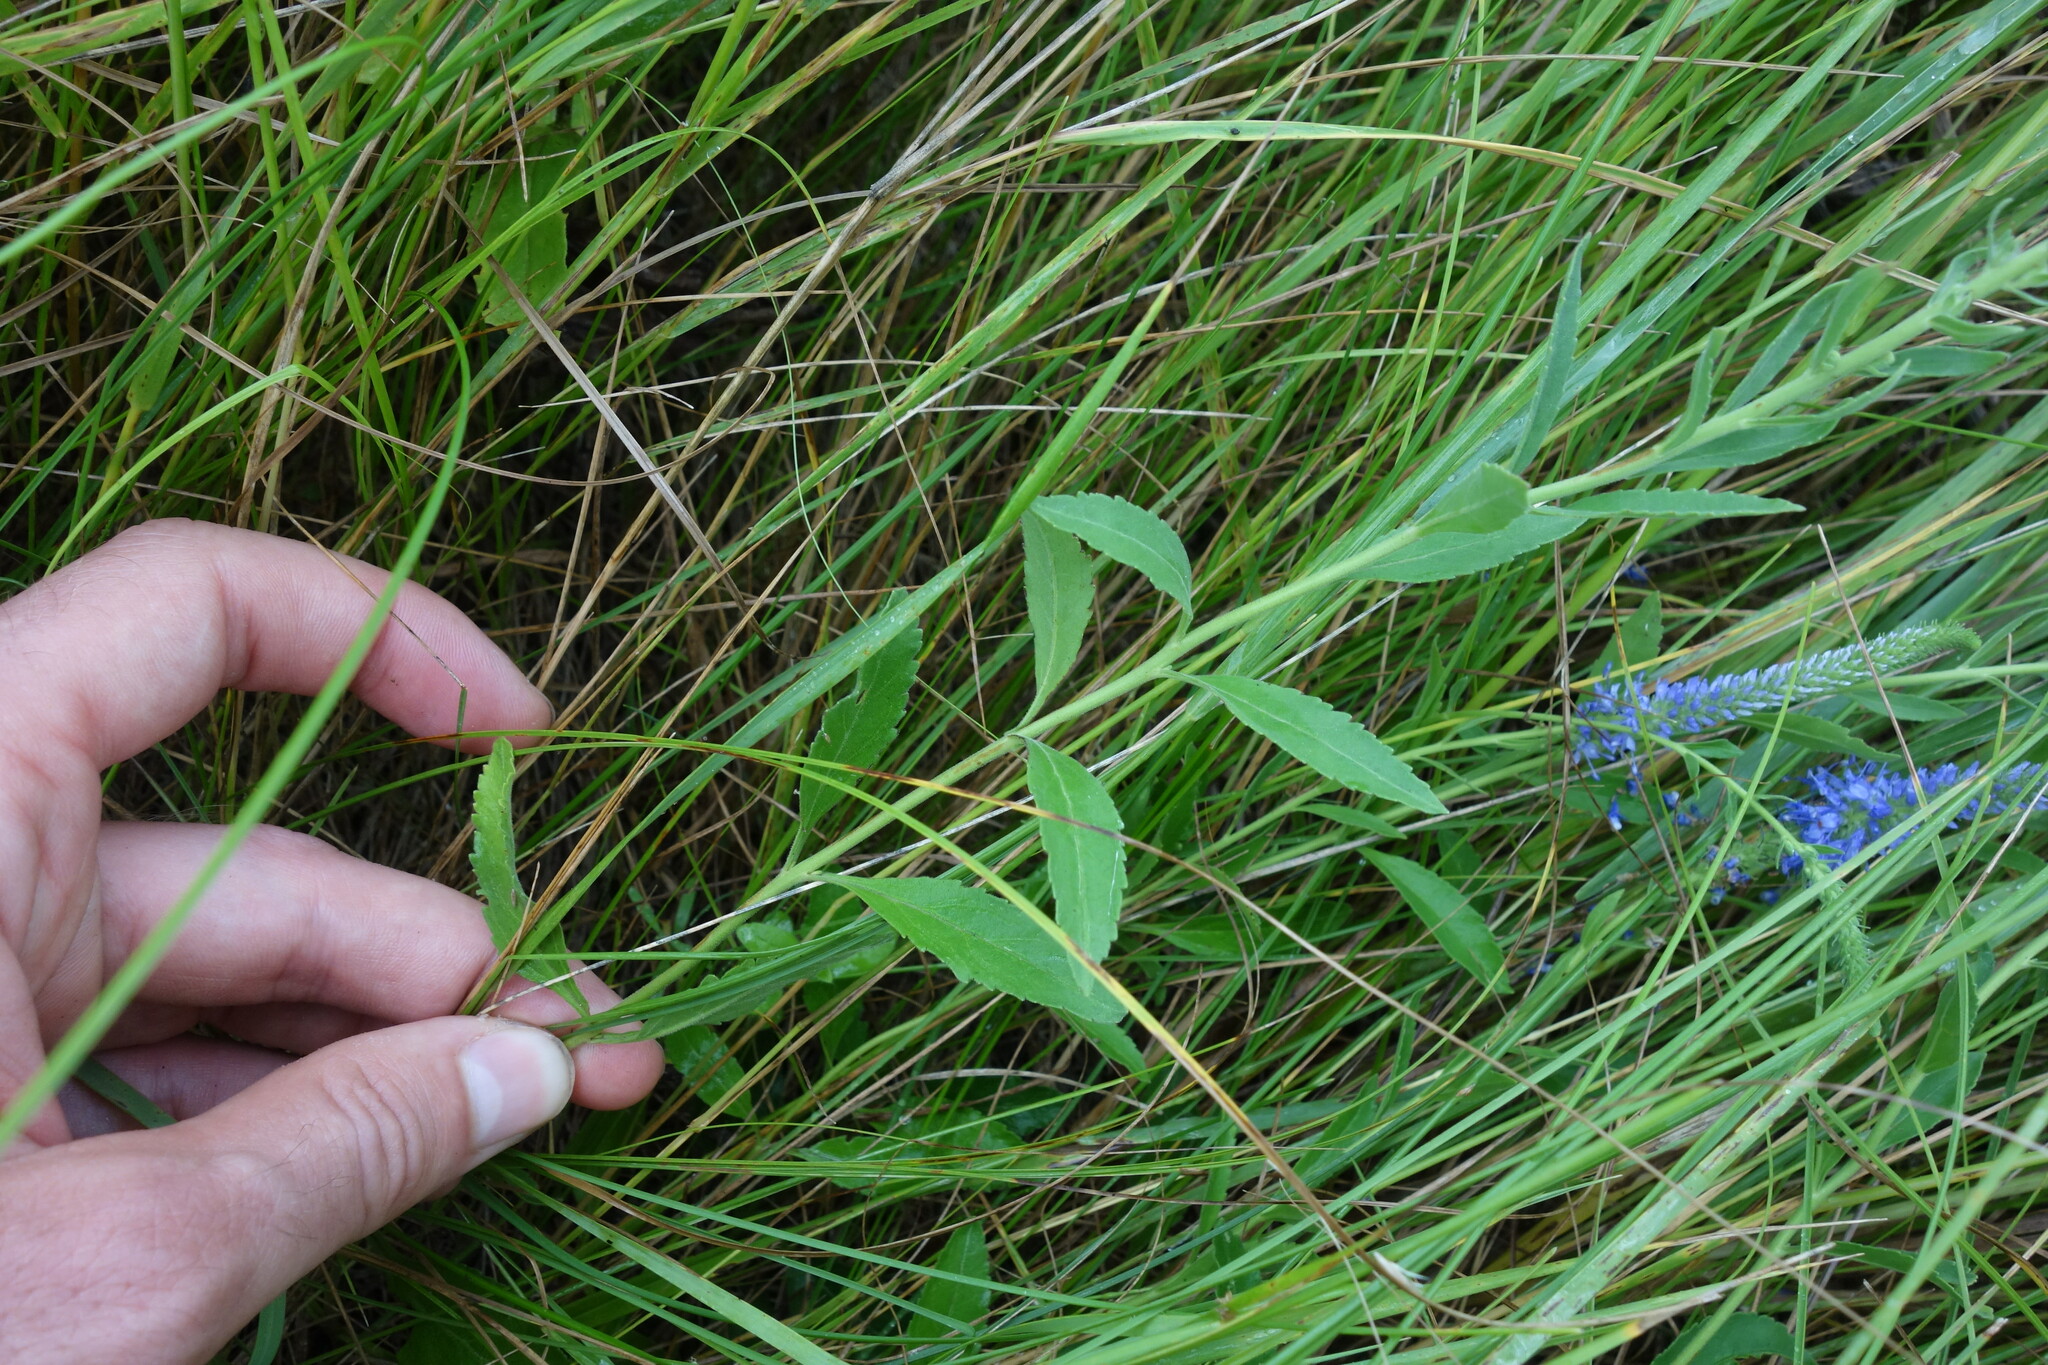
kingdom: Plantae
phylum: Tracheophyta
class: Magnoliopsida
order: Lamiales
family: Plantaginaceae
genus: Veronica
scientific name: Veronica spicata
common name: Spiked speedwell
